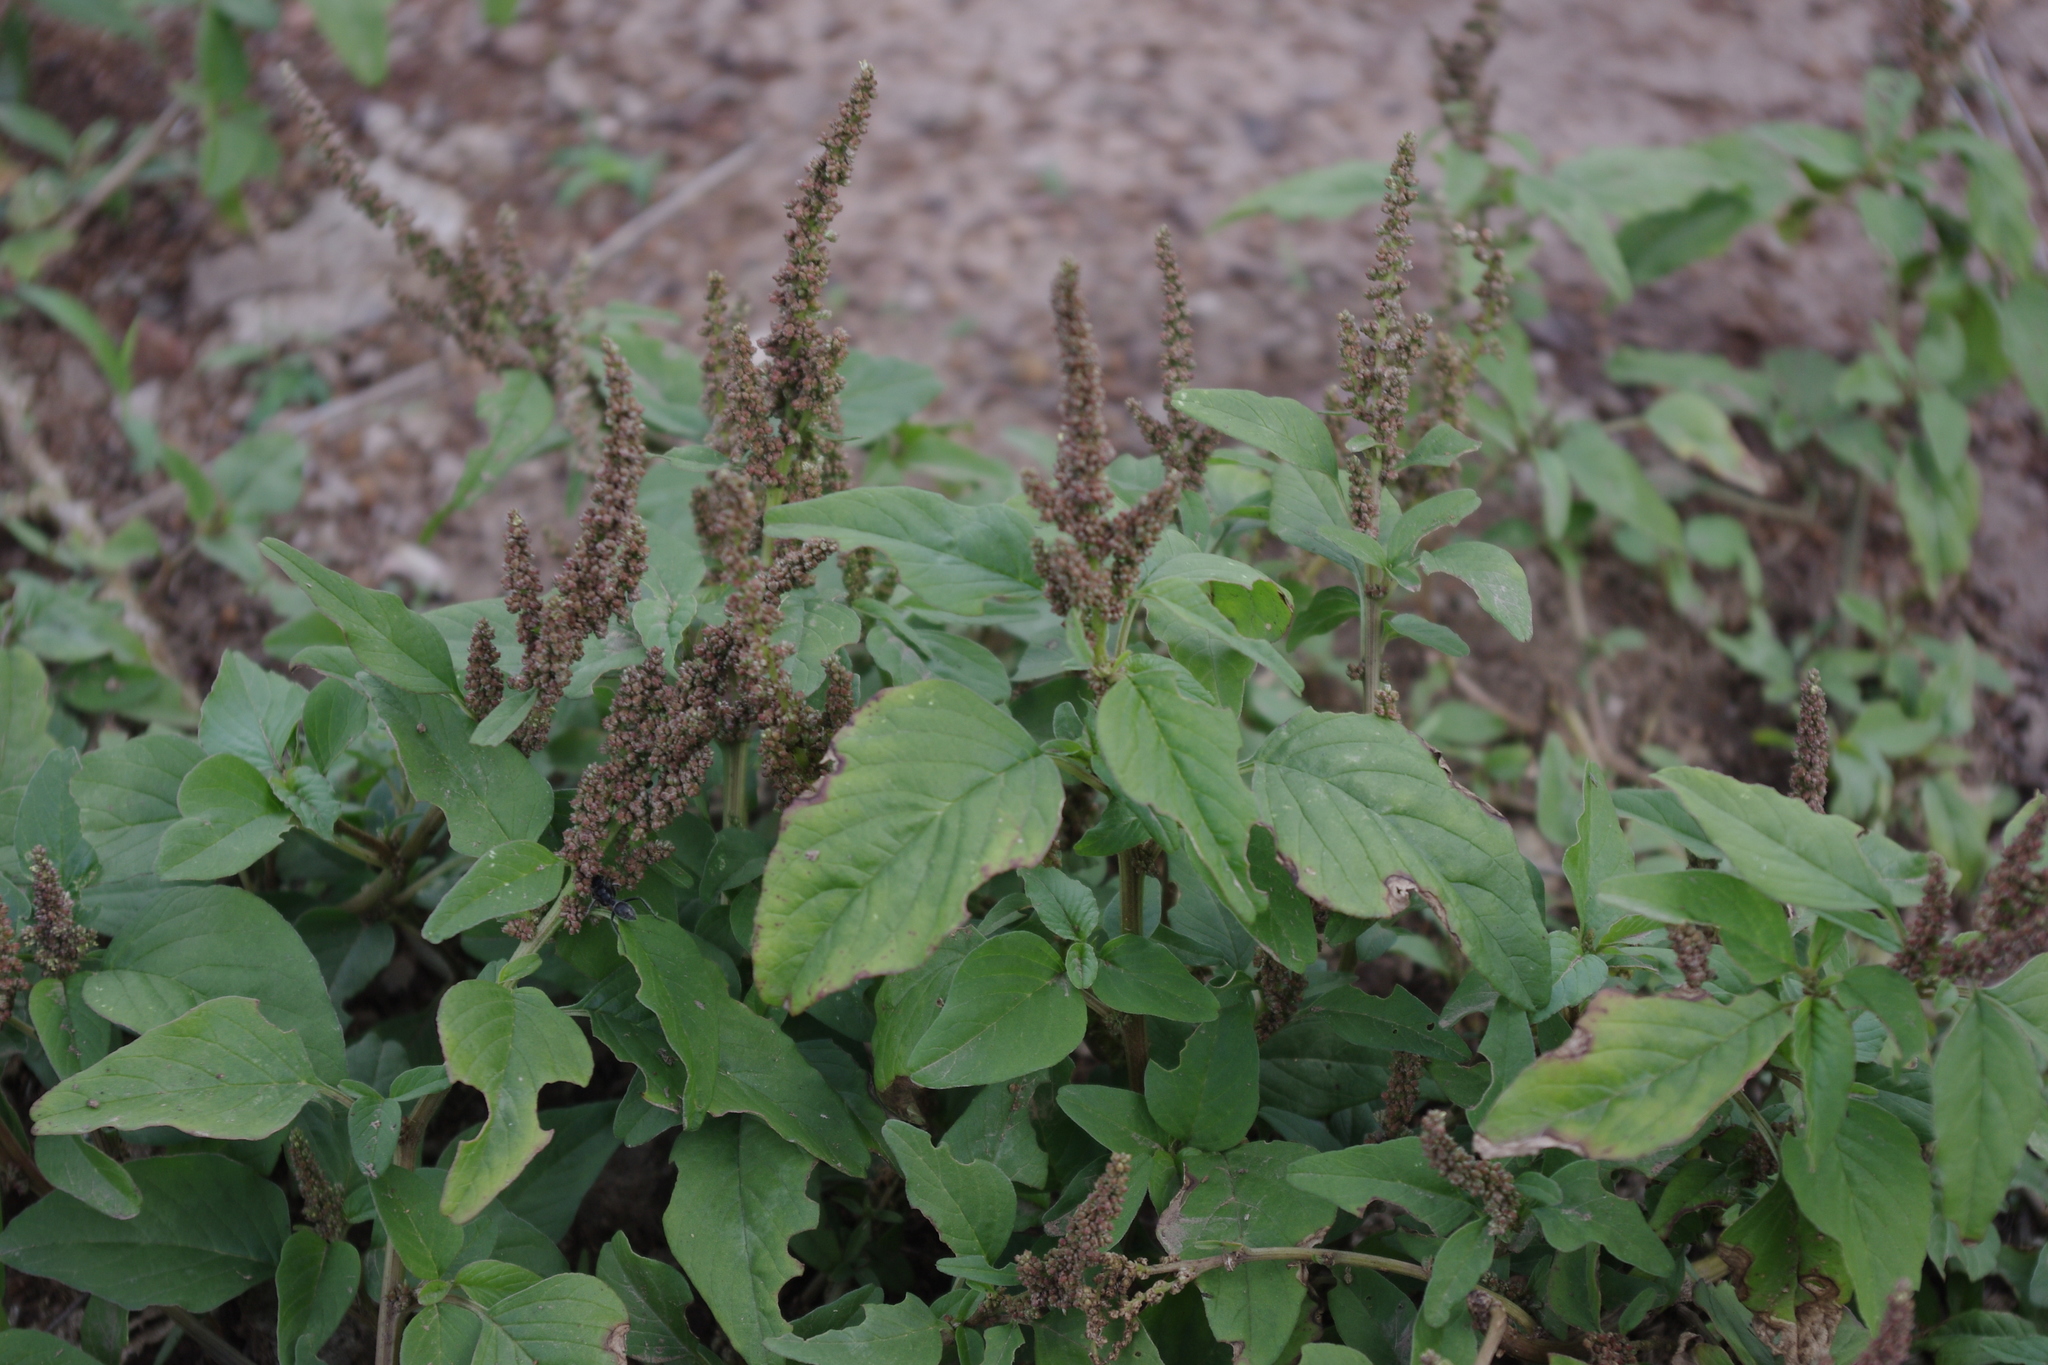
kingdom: Plantae
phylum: Tracheophyta
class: Magnoliopsida
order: Caryophyllales
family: Amaranthaceae
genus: Amaranthus
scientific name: Amaranthus viridis
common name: Slender amaranth
